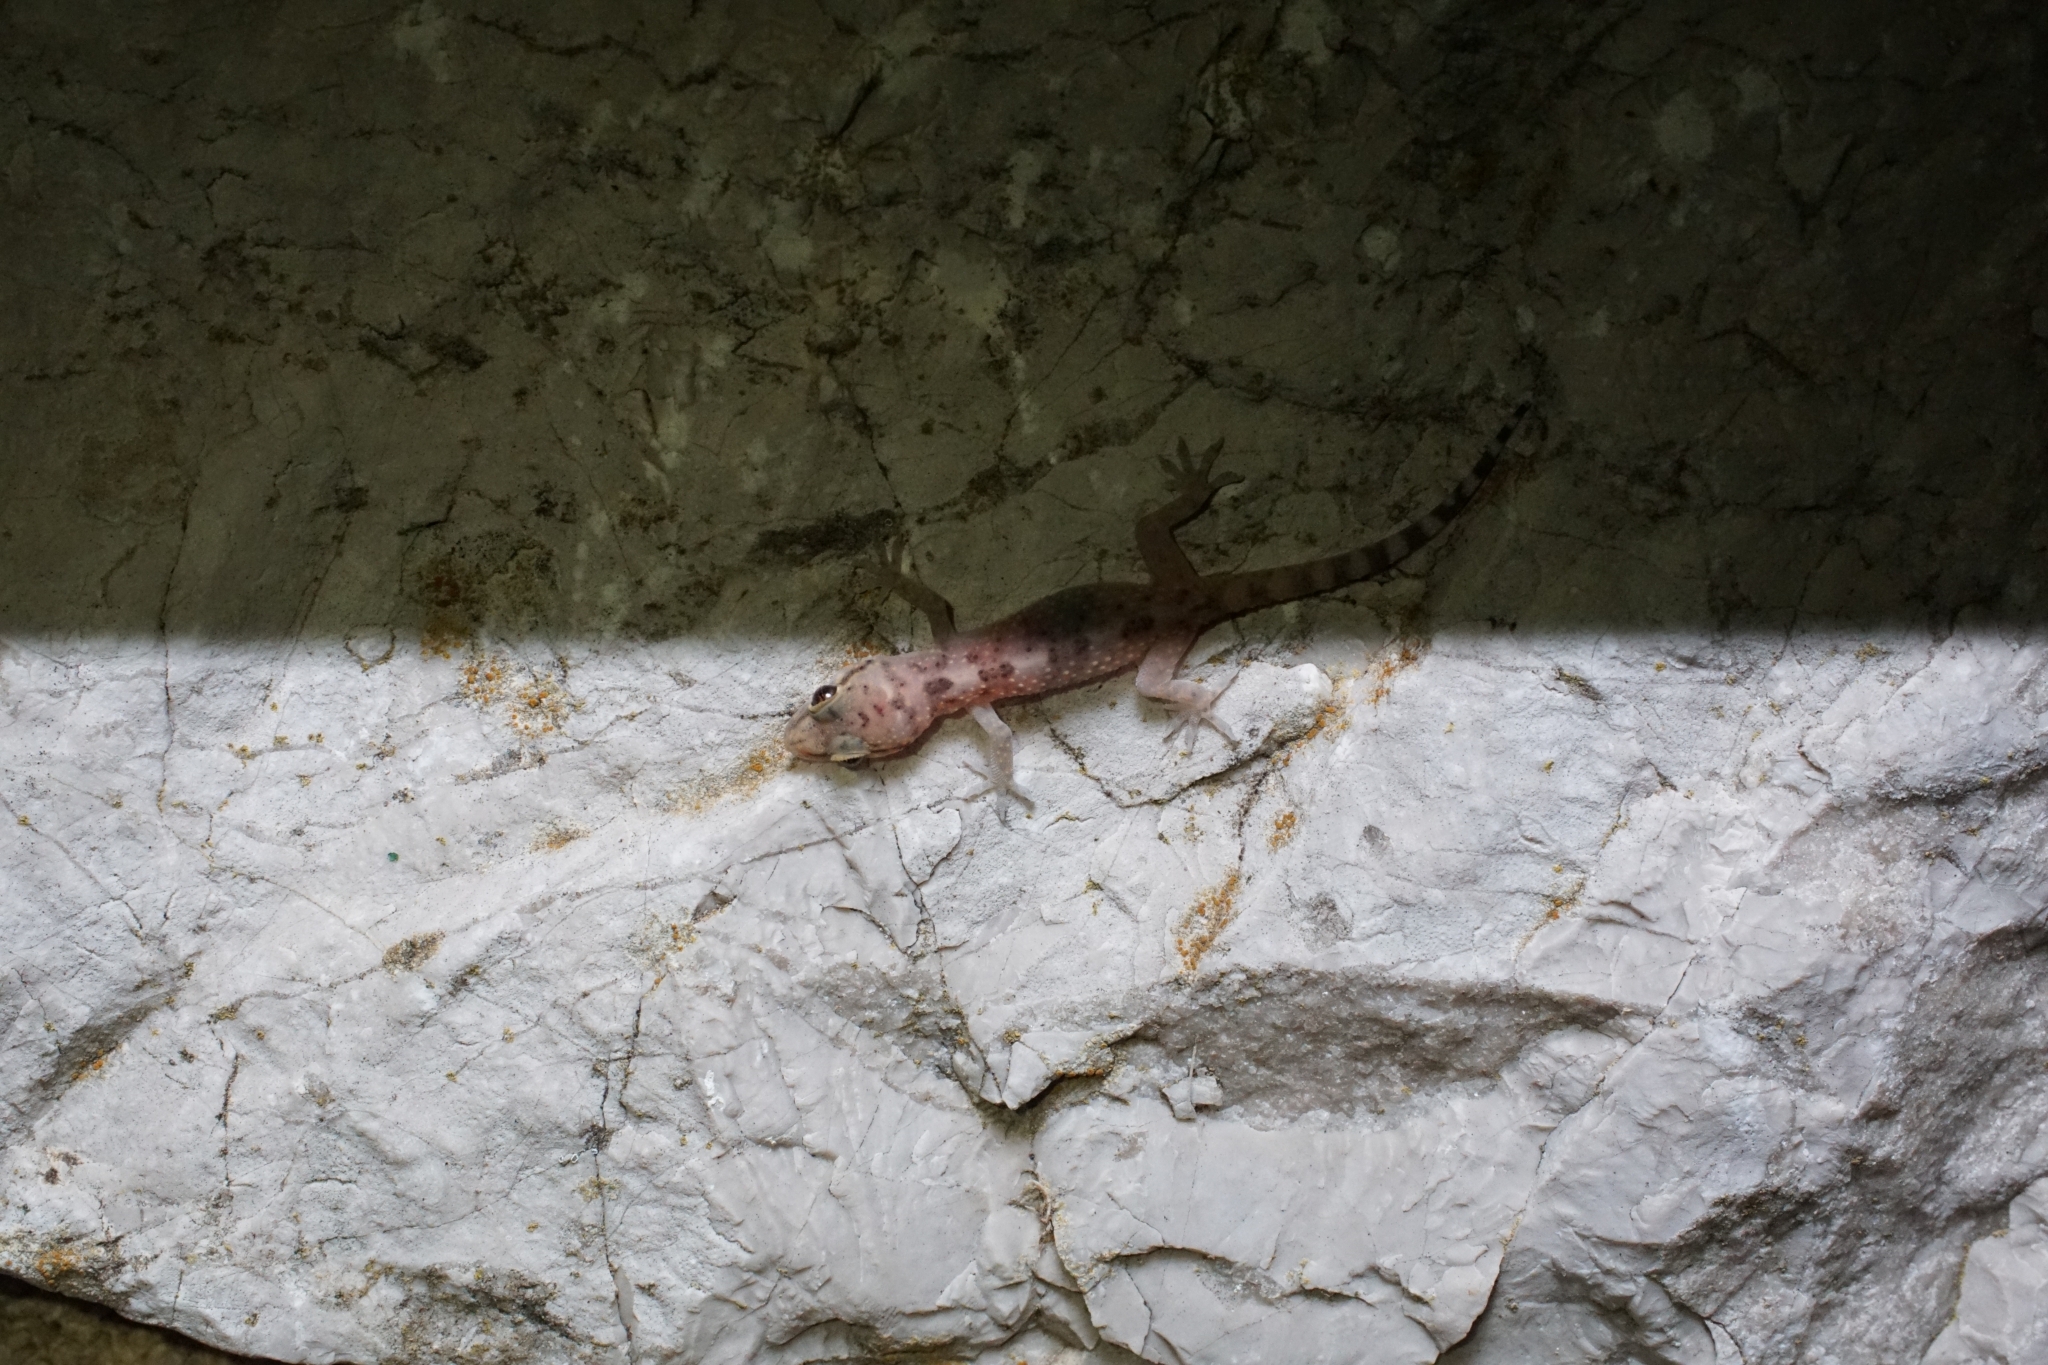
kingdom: Animalia
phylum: Chordata
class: Squamata
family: Gekkonidae
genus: Hemidactylus
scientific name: Hemidactylus turcicus
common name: Turkish gecko
